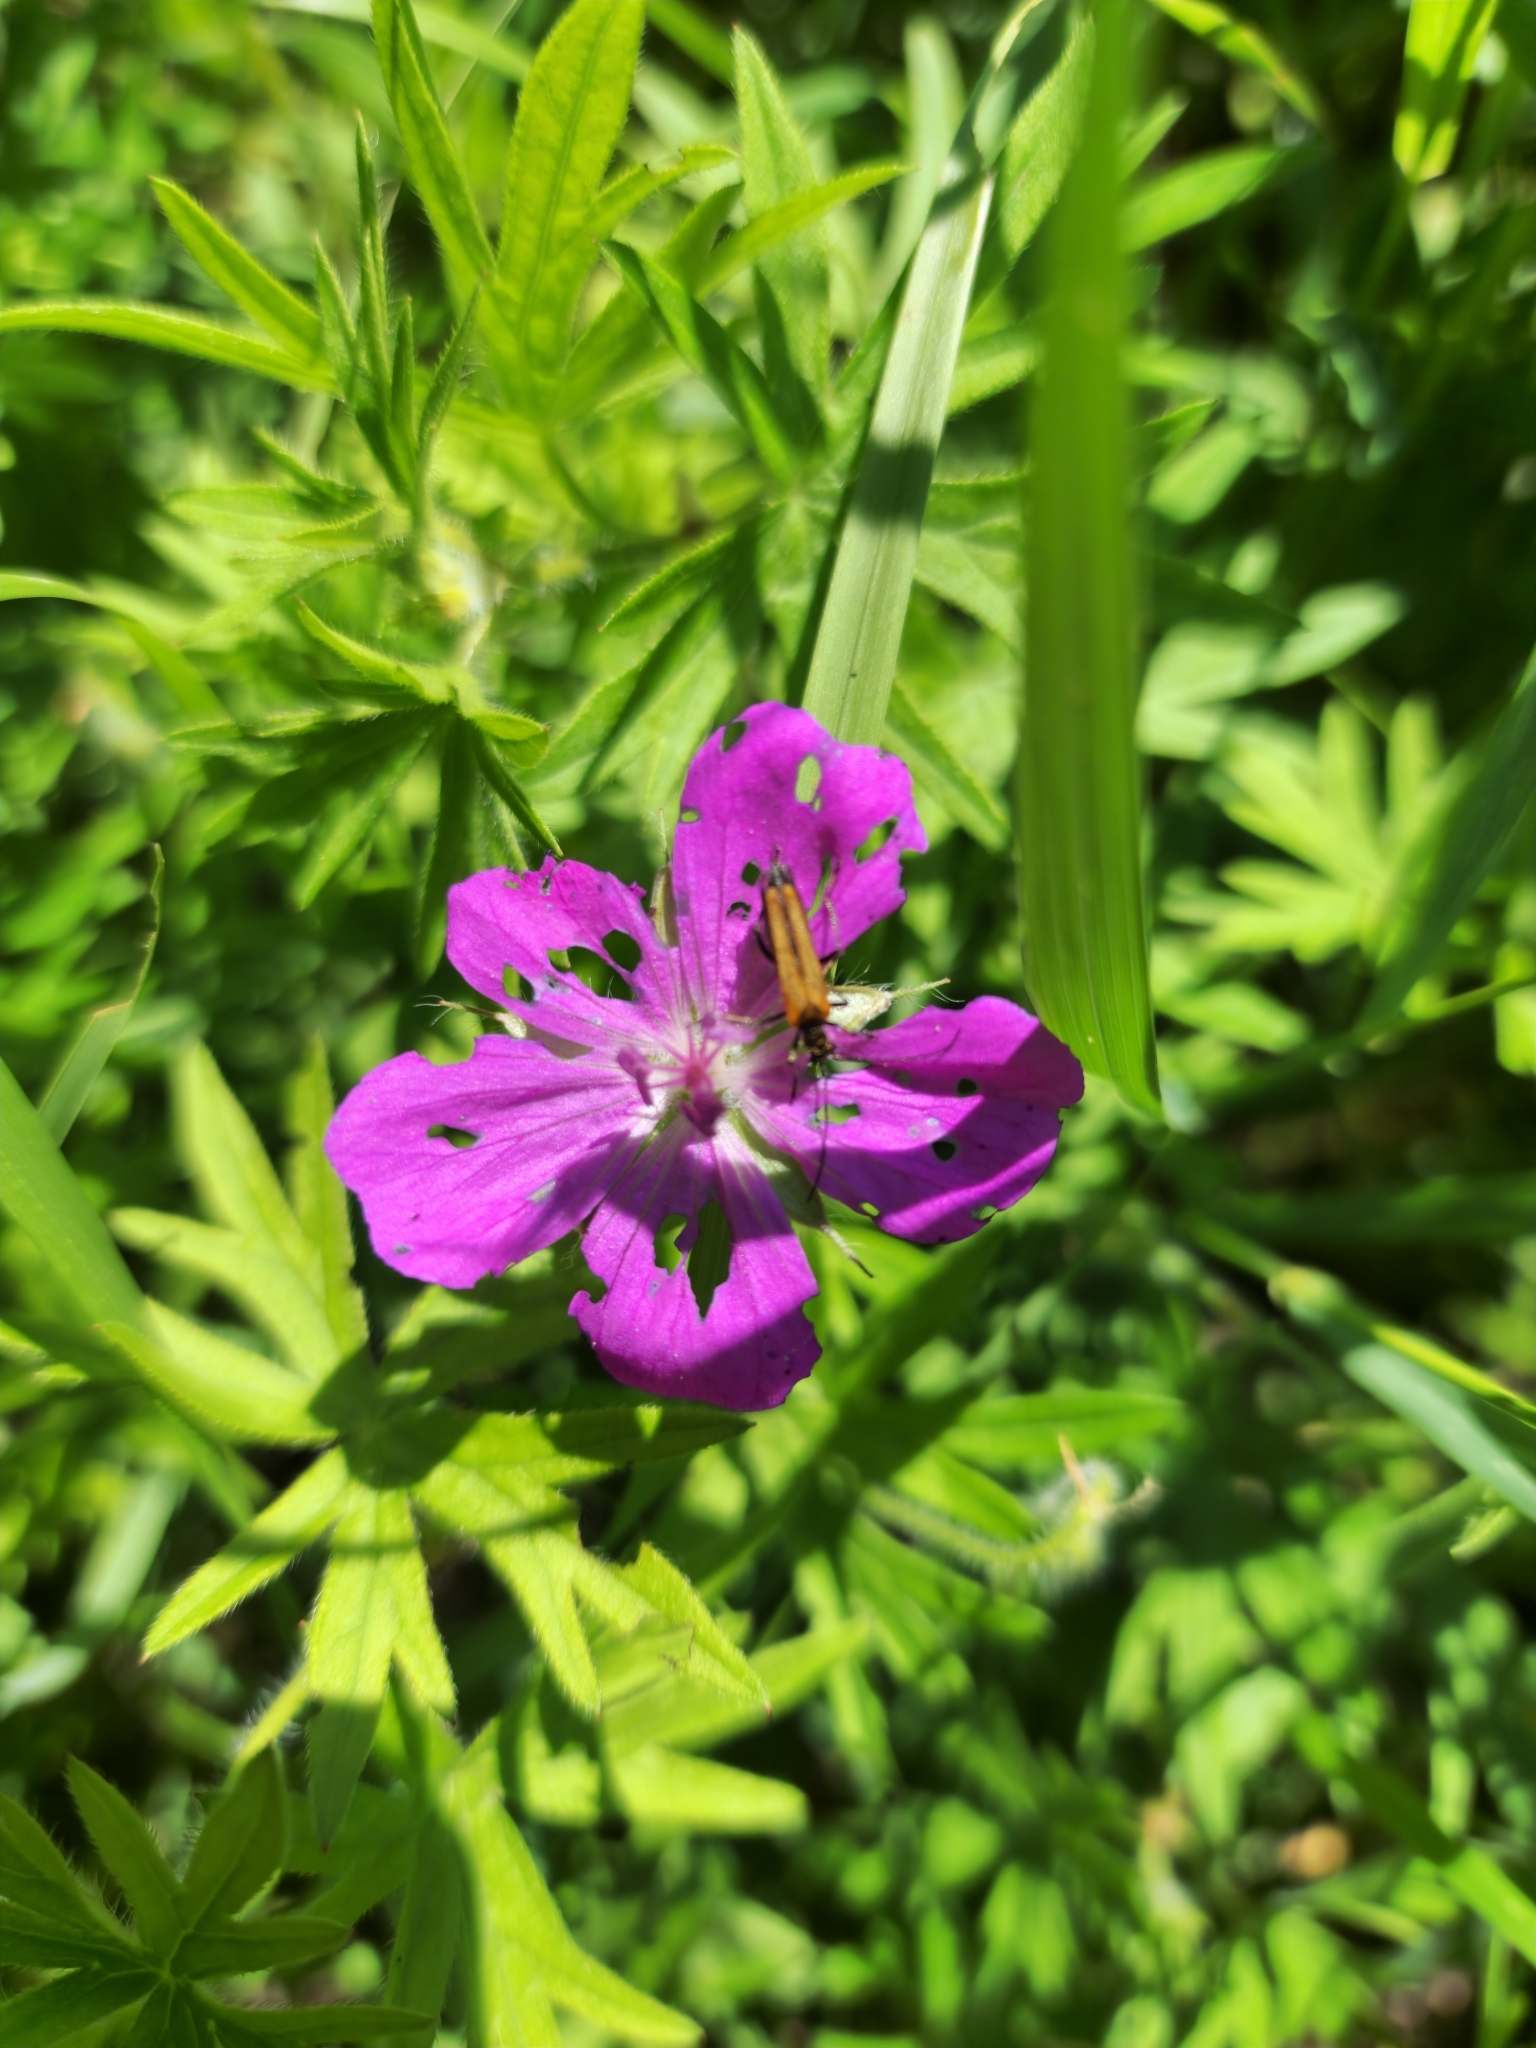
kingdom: Plantae
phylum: Tracheophyta
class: Magnoliopsida
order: Geraniales
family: Geraniaceae
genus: Geranium
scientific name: Geranium sanguineum
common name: Bloody crane's-bill
